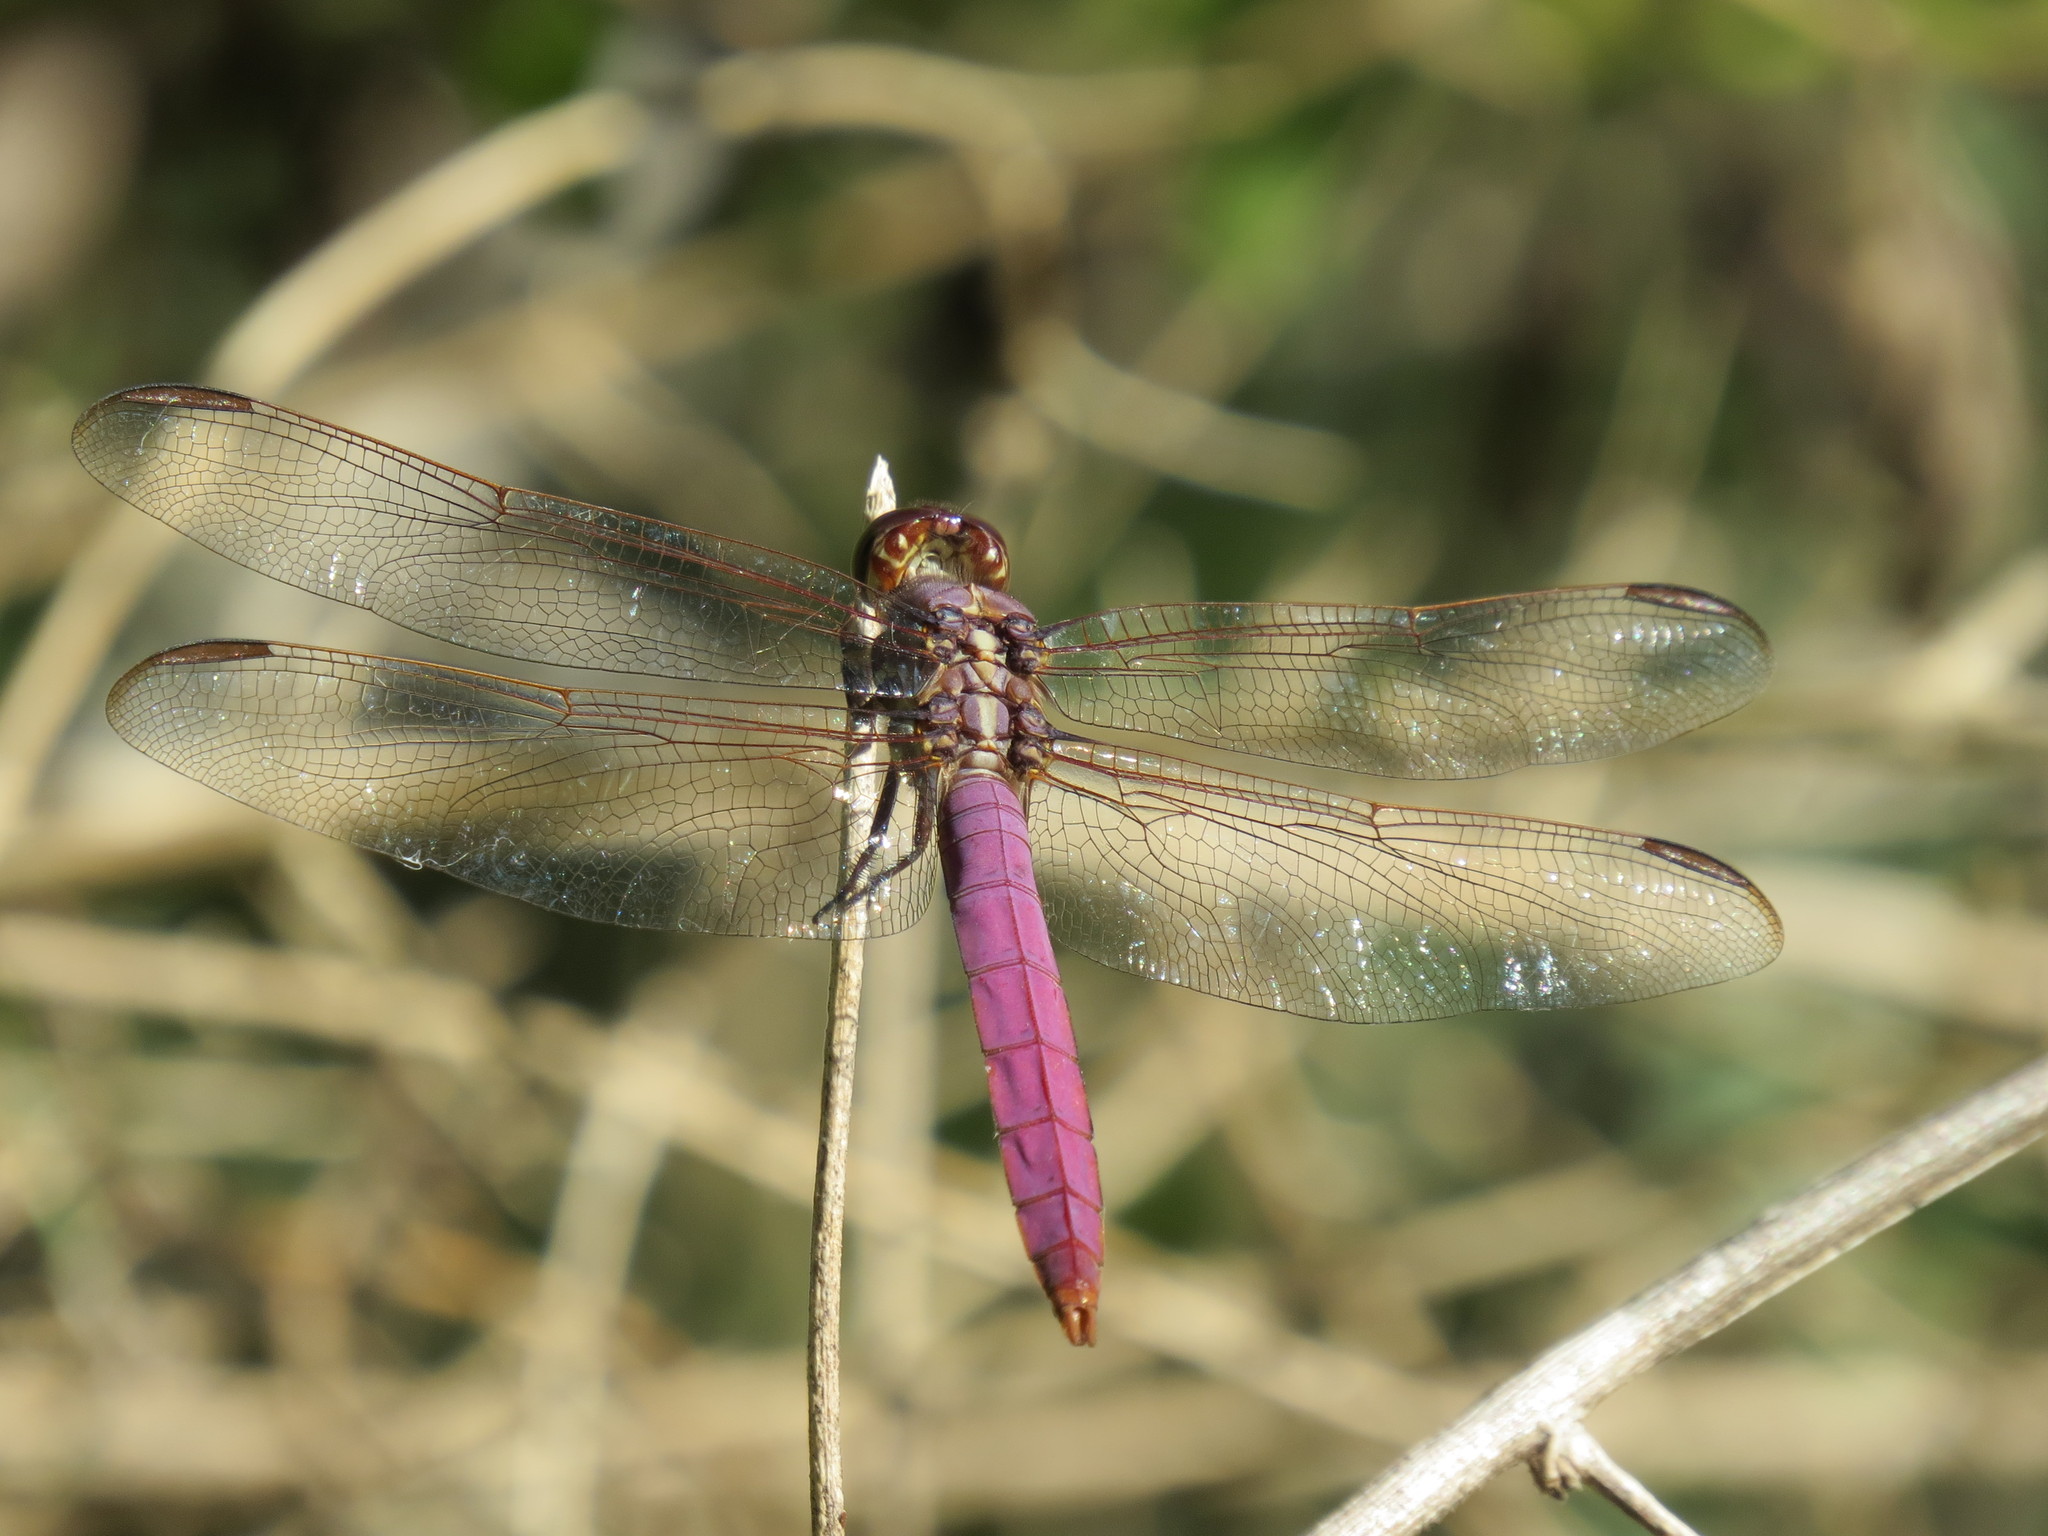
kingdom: Animalia
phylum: Arthropoda
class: Insecta
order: Odonata
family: Libellulidae
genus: Orthemis
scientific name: Orthemis ferruginea
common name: Roseate skimmer
